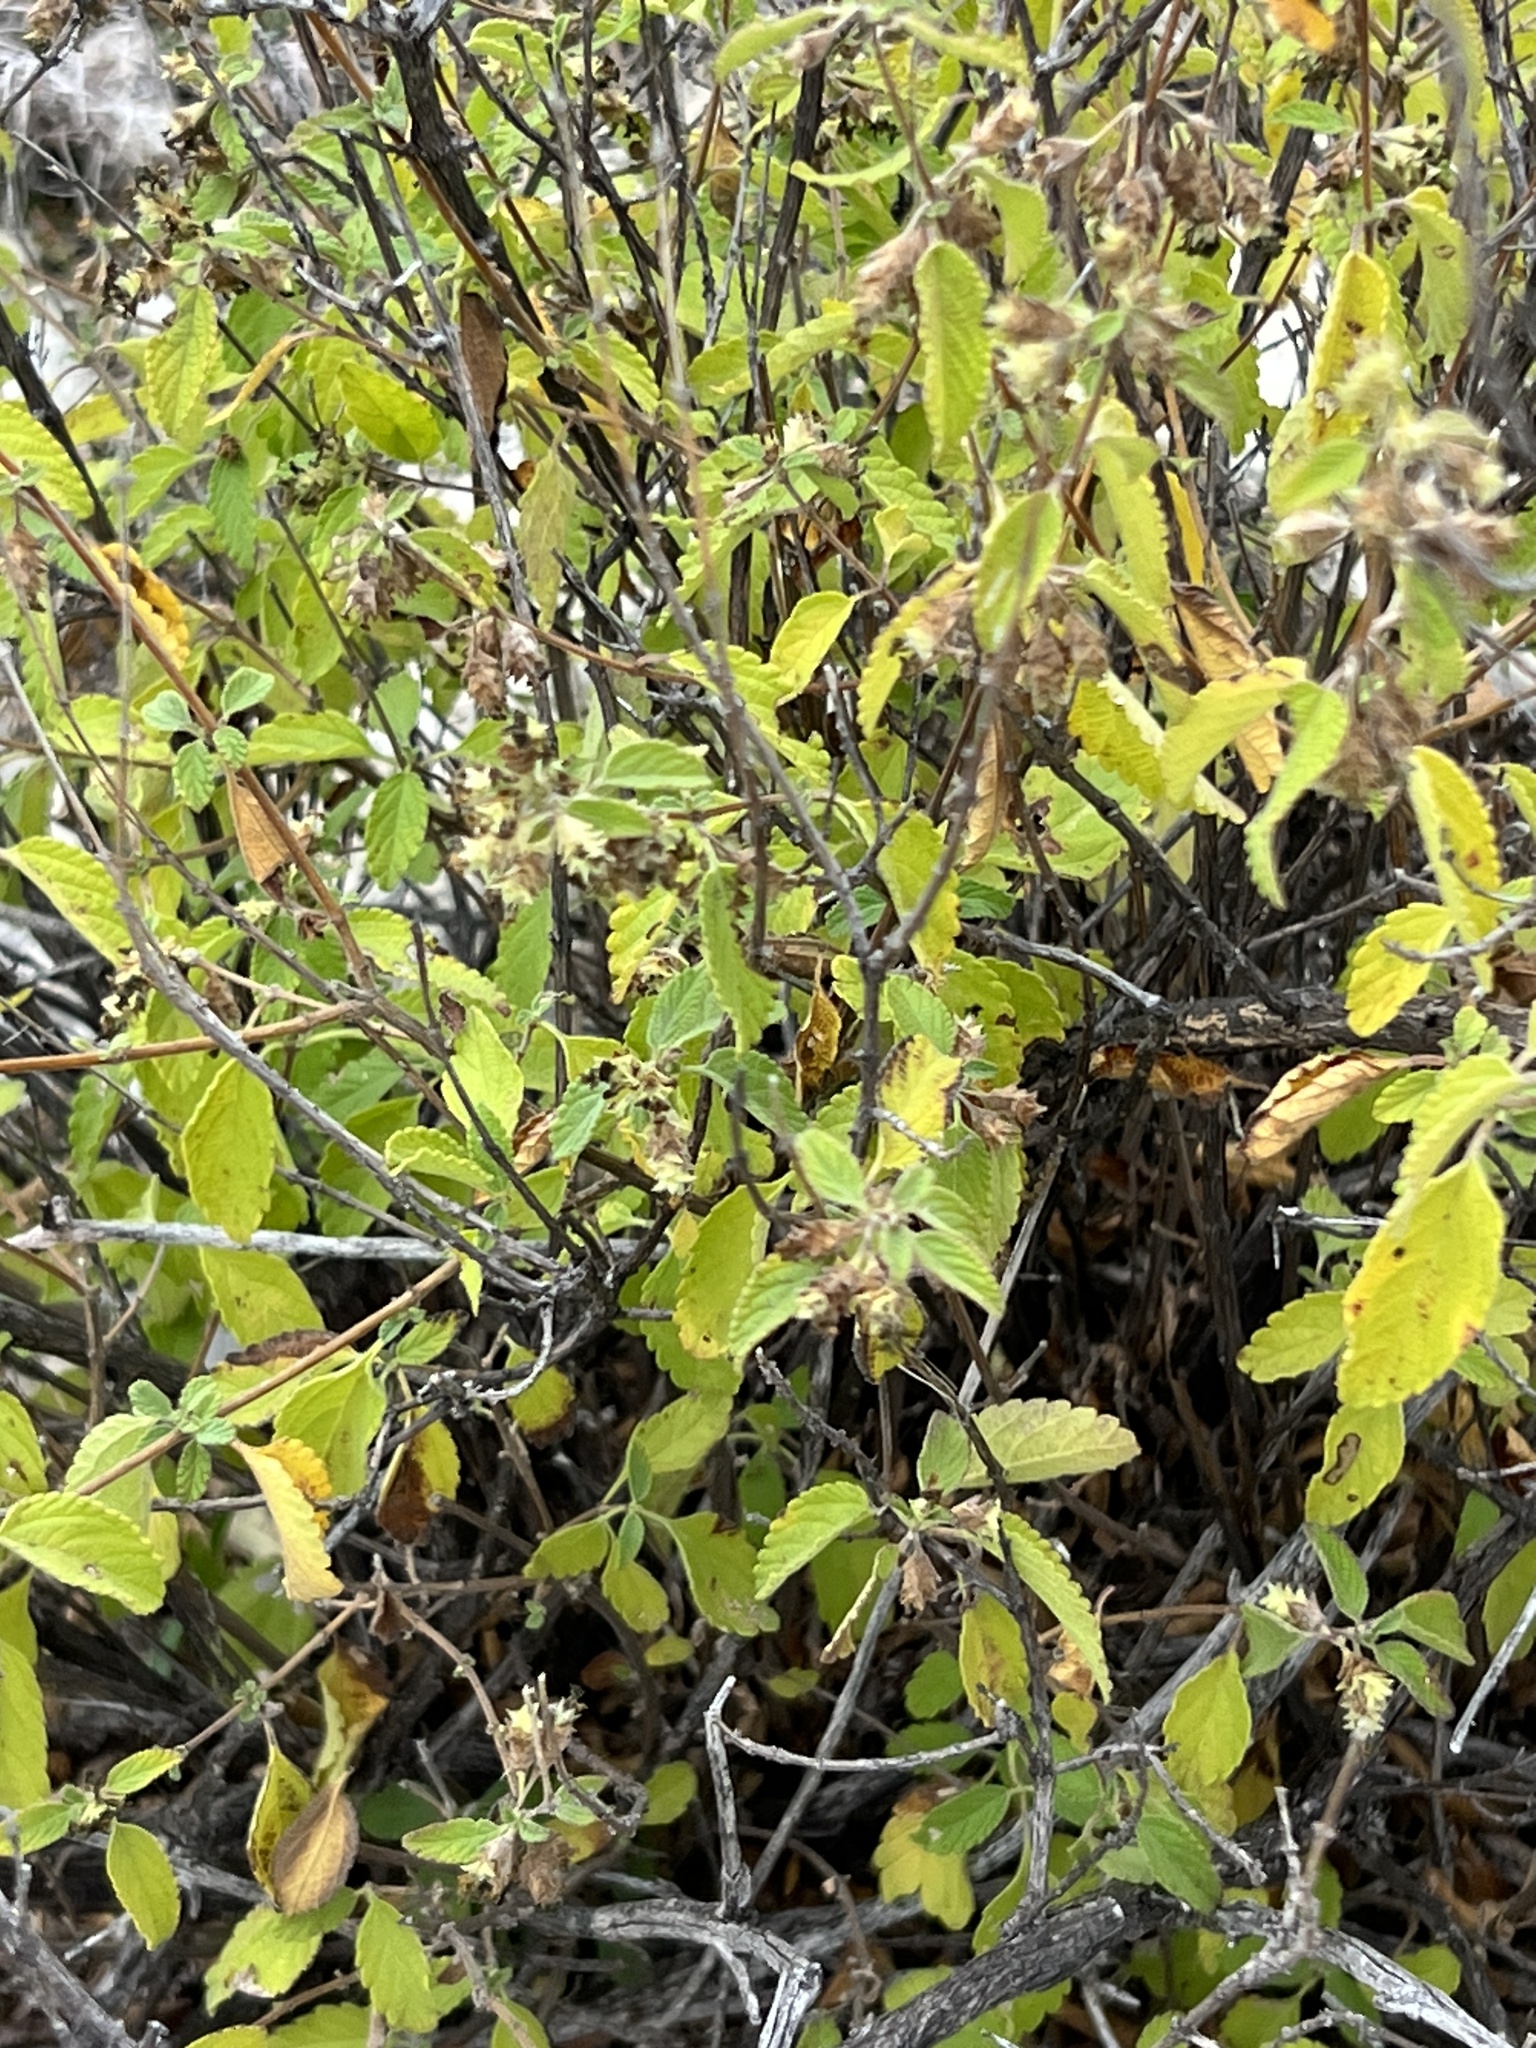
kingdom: Plantae
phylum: Tracheophyta
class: Magnoliopsida
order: Lamiales
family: Verbenaceae
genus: Lippia
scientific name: Lippia origanoides
